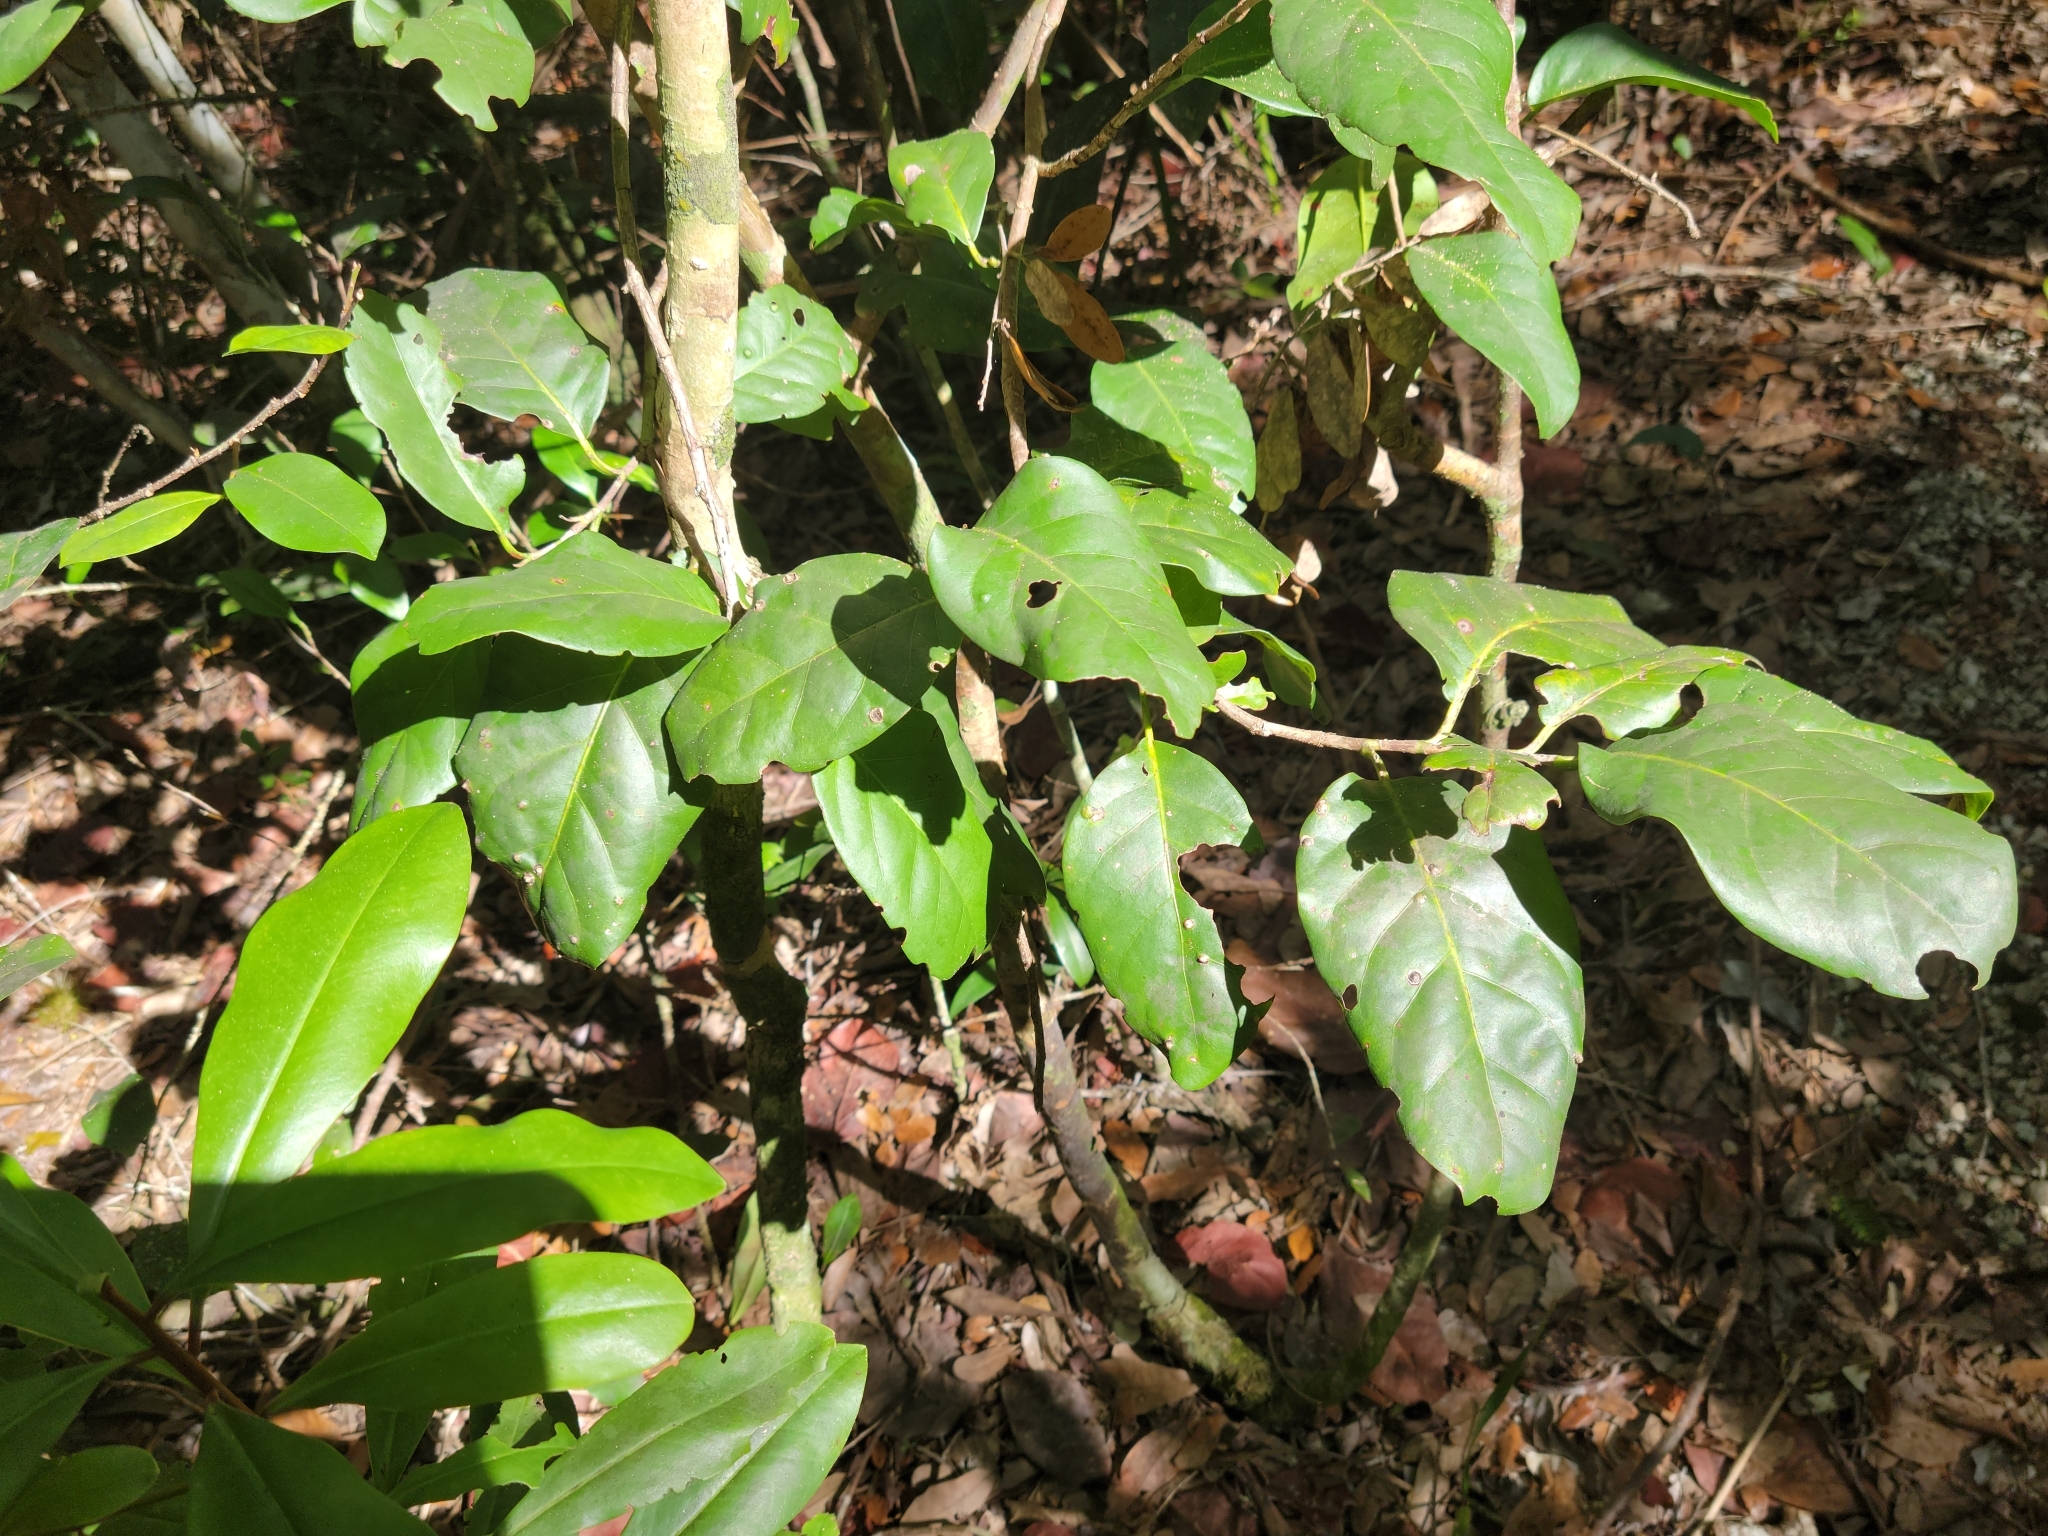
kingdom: Plantae
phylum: Tracheophyta
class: Magnoliopsida
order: Caryophyllales
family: Polygonaceae
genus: Coccoloba
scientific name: Coccoloba diversifolia
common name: Pigeon-plum
